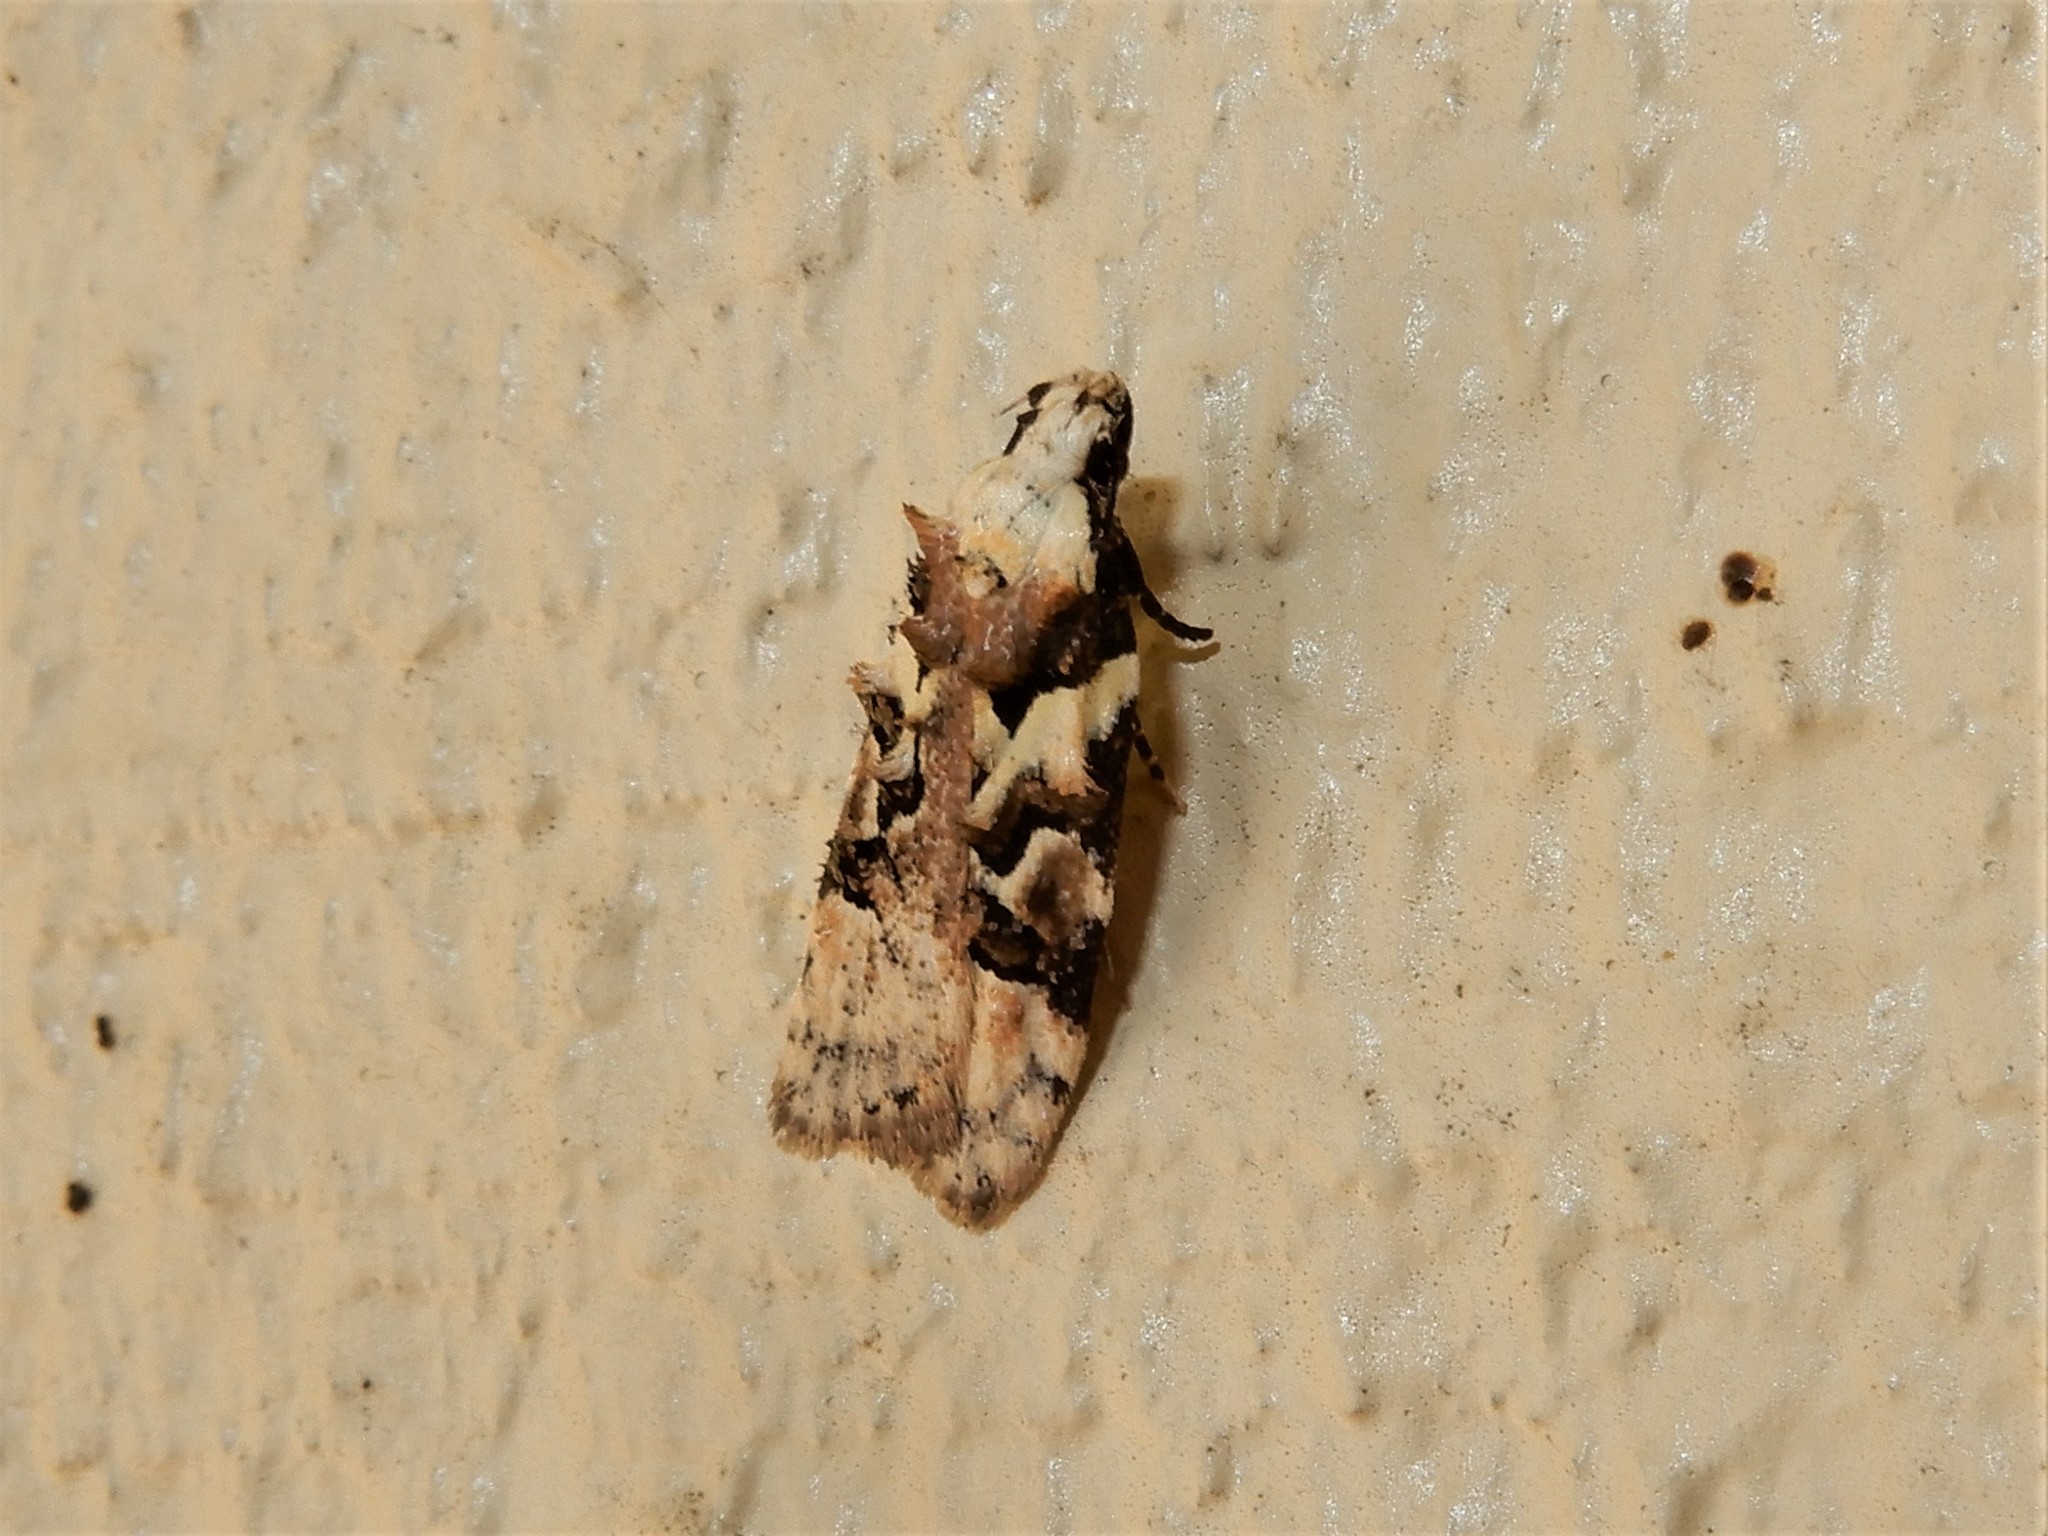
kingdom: Animalia
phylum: Arthropoda
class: Insecta
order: Lepidoptera
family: Oecophoridae
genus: Izatha
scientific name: Izatha epiphanes
